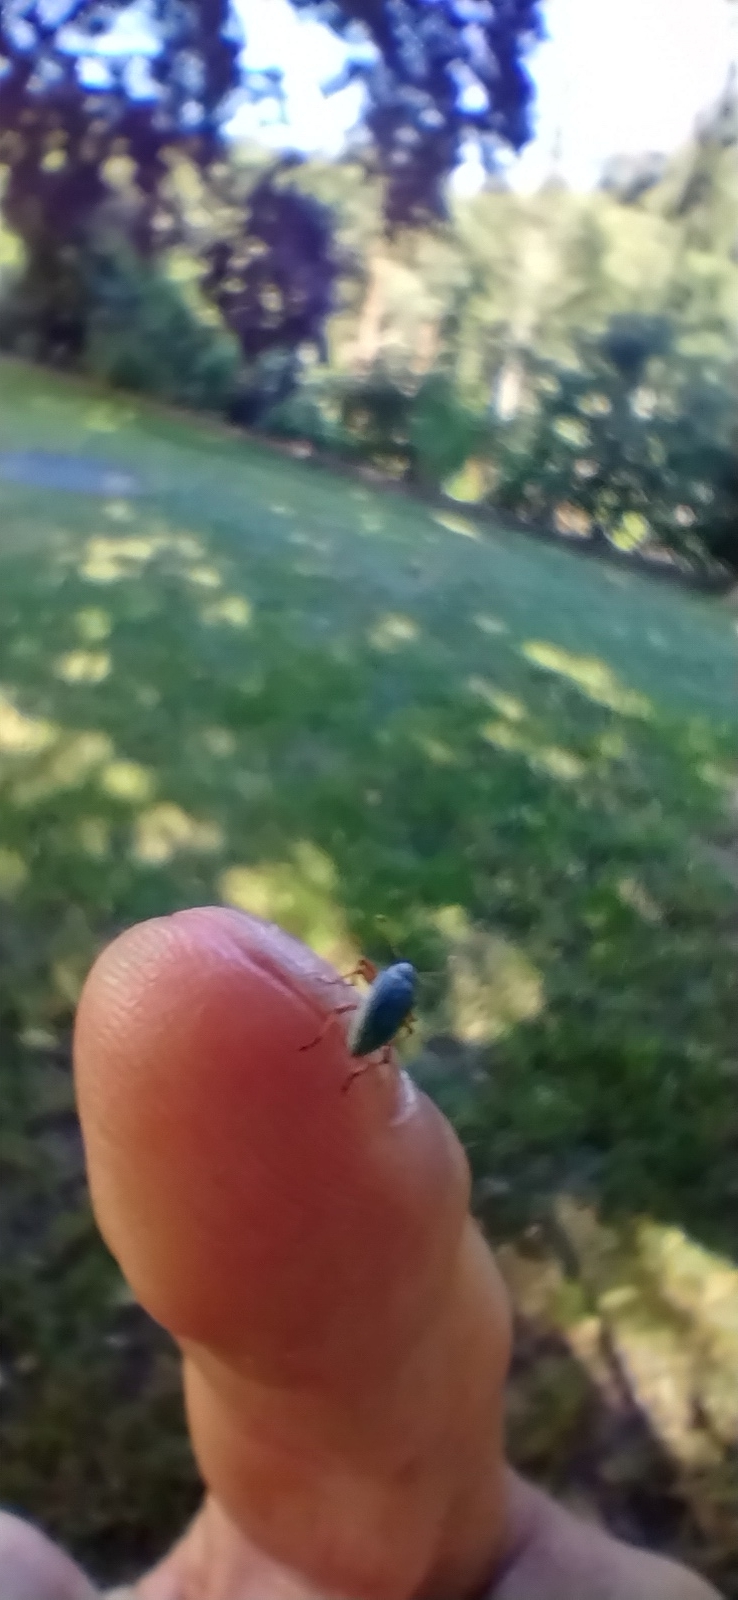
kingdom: Animalia
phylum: Arthropoda
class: Insecta
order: Coleoptera
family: Curculionidae
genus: Polydrusus
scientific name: Polydrusus formosus
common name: Weevil
